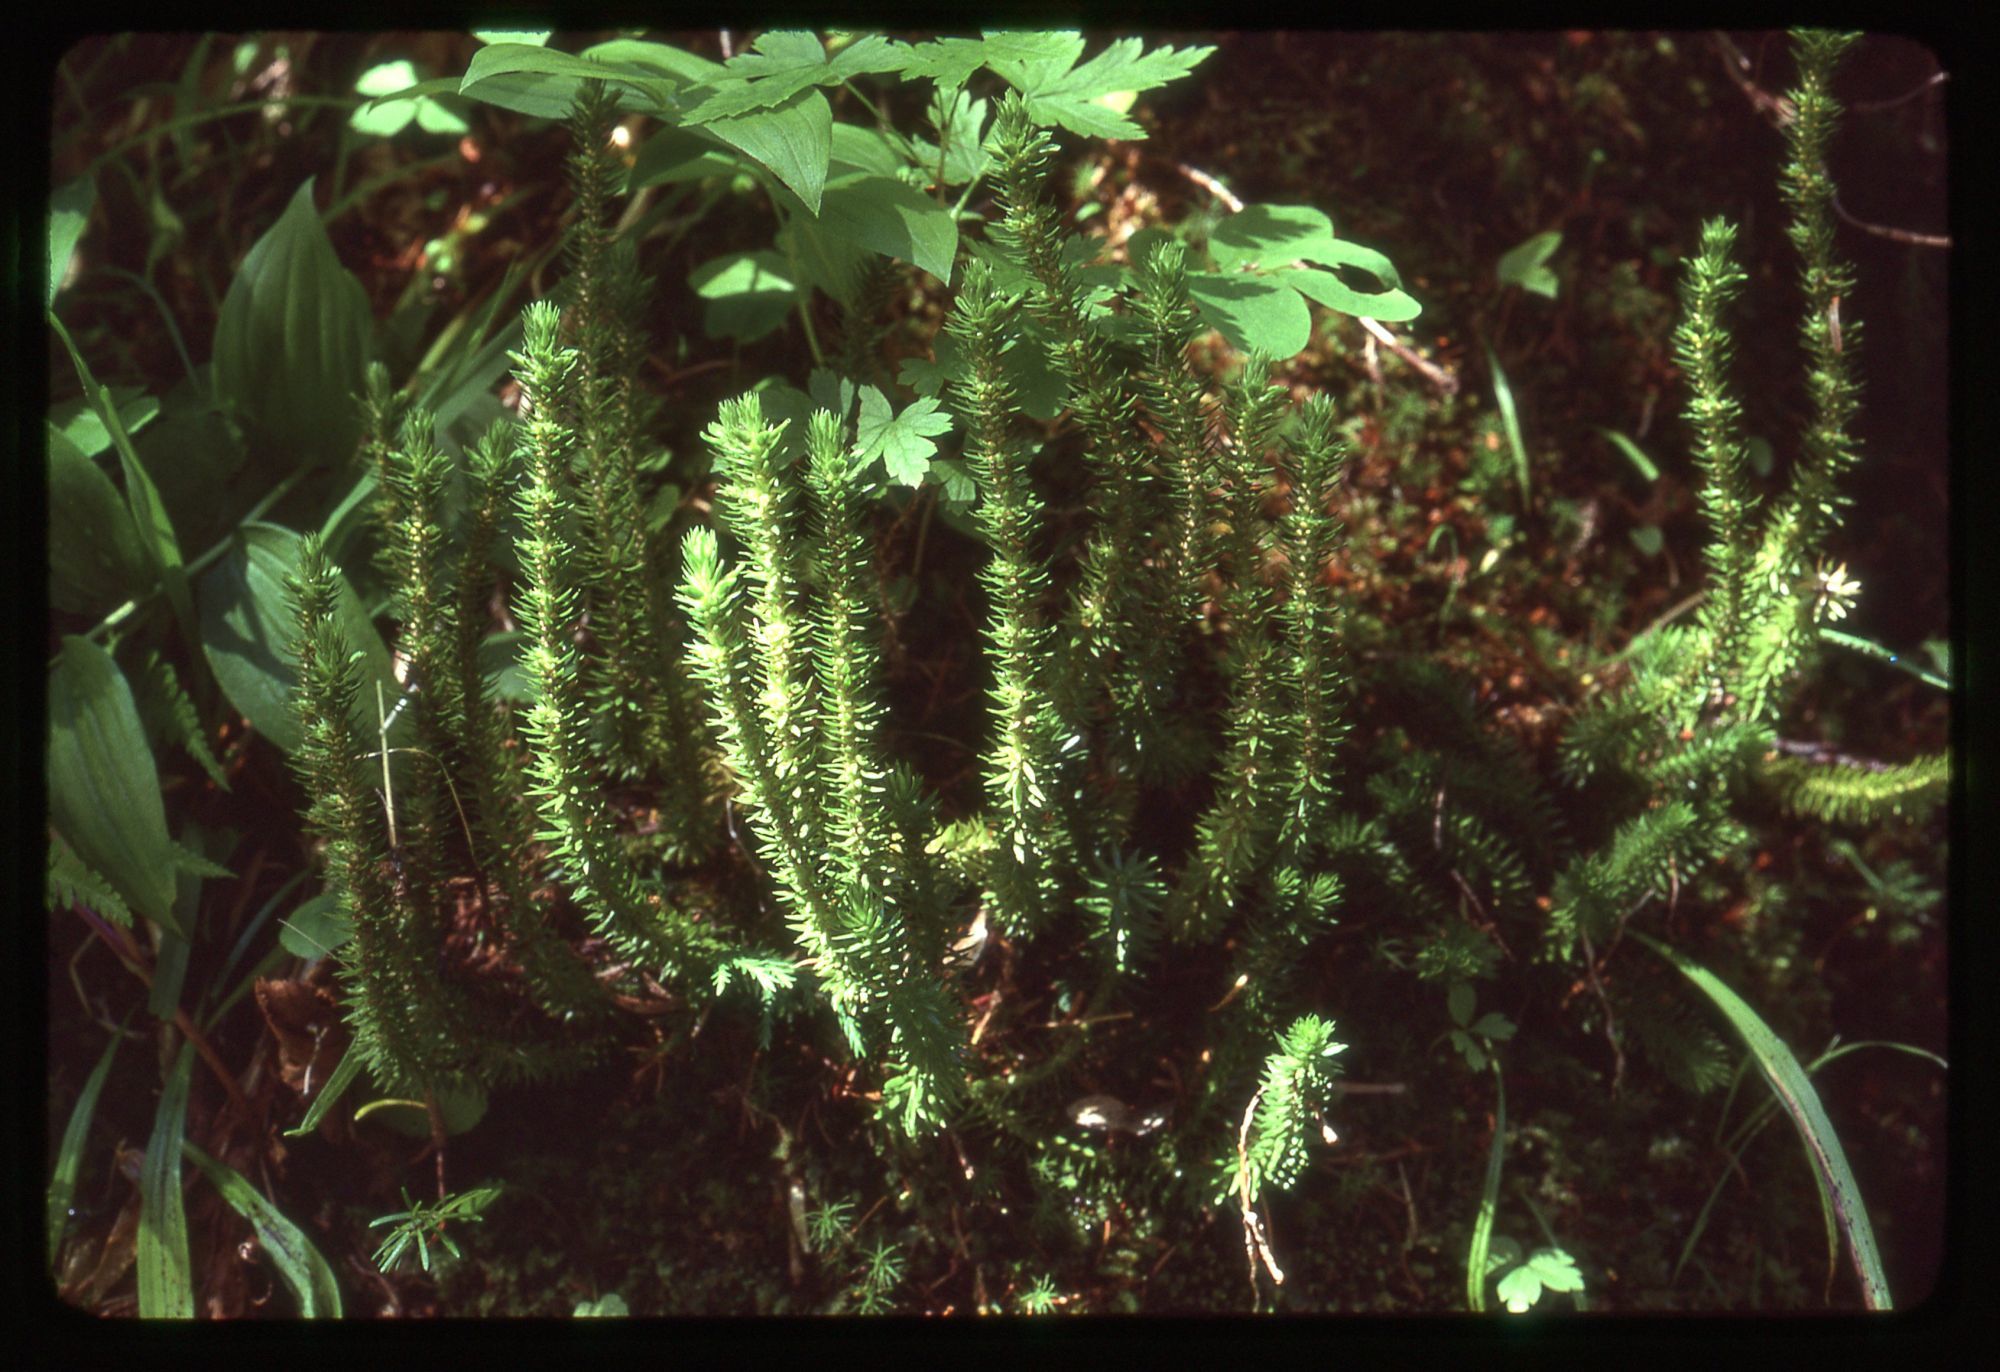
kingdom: Plantae
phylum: Tracheophyta
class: Lycopodiopsida
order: Lycopodiales
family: Lycopodiaceae
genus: Huperzia
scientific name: Huperzia occidentalis
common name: Western clubmoss
